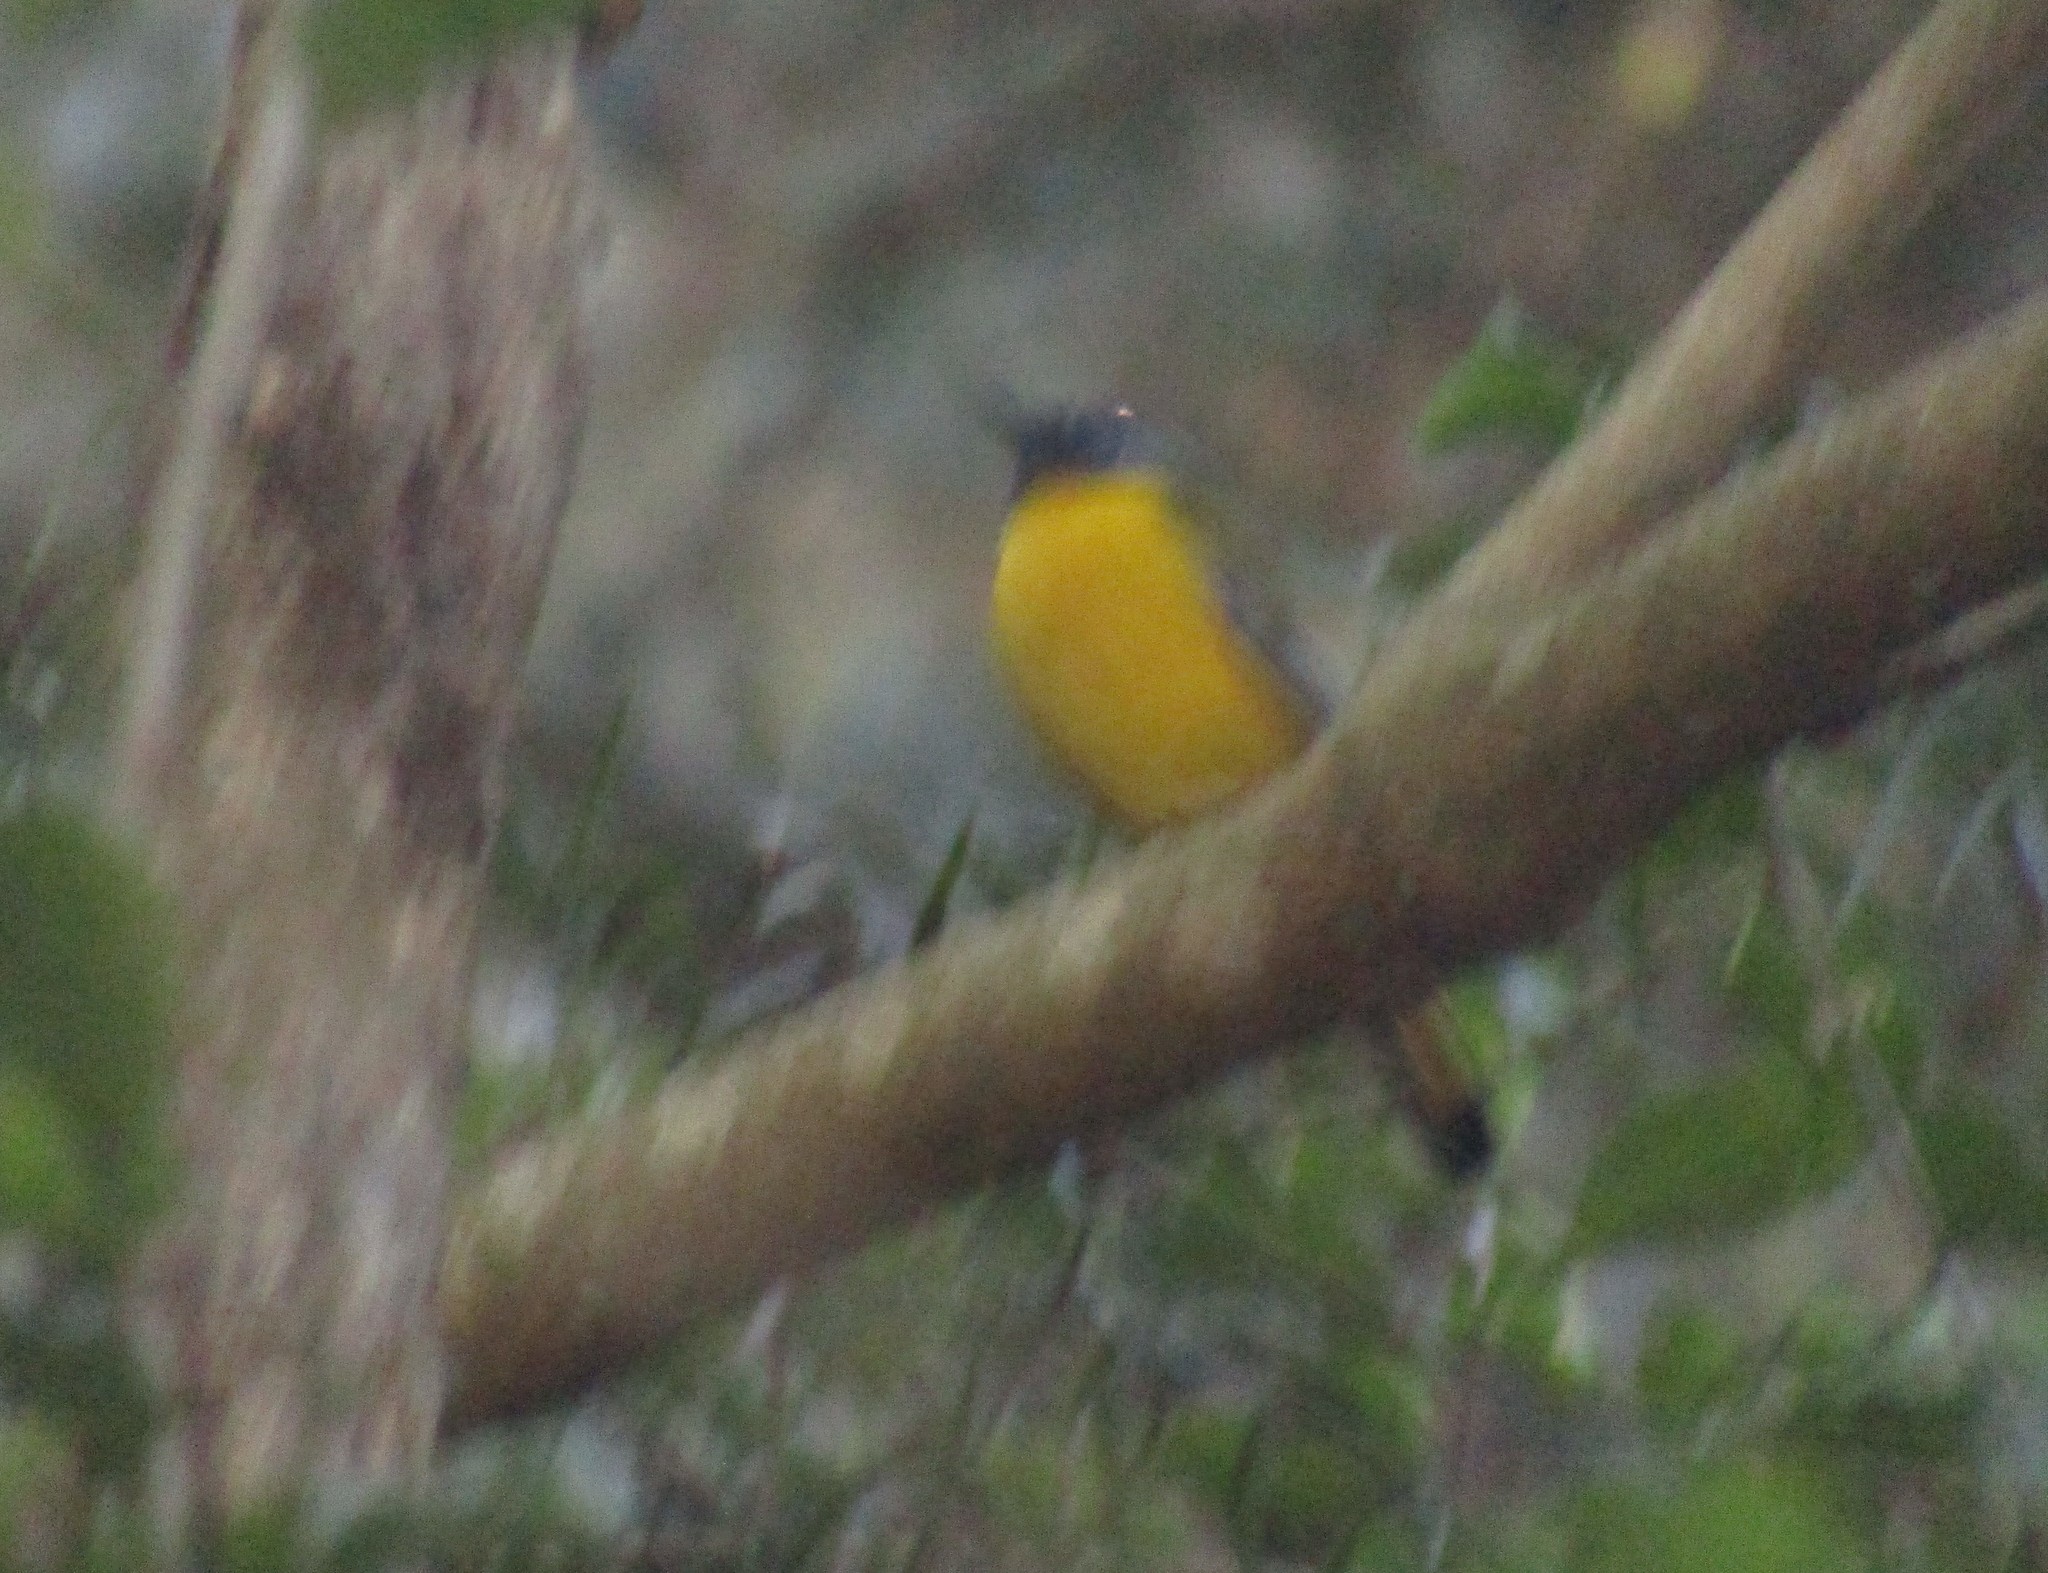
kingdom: Animalia
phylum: Chordata
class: Aves
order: Passeriformes
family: Muscicapidae
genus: Pogonocichla
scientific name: Pogonocichla stellata
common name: White-starred robin
